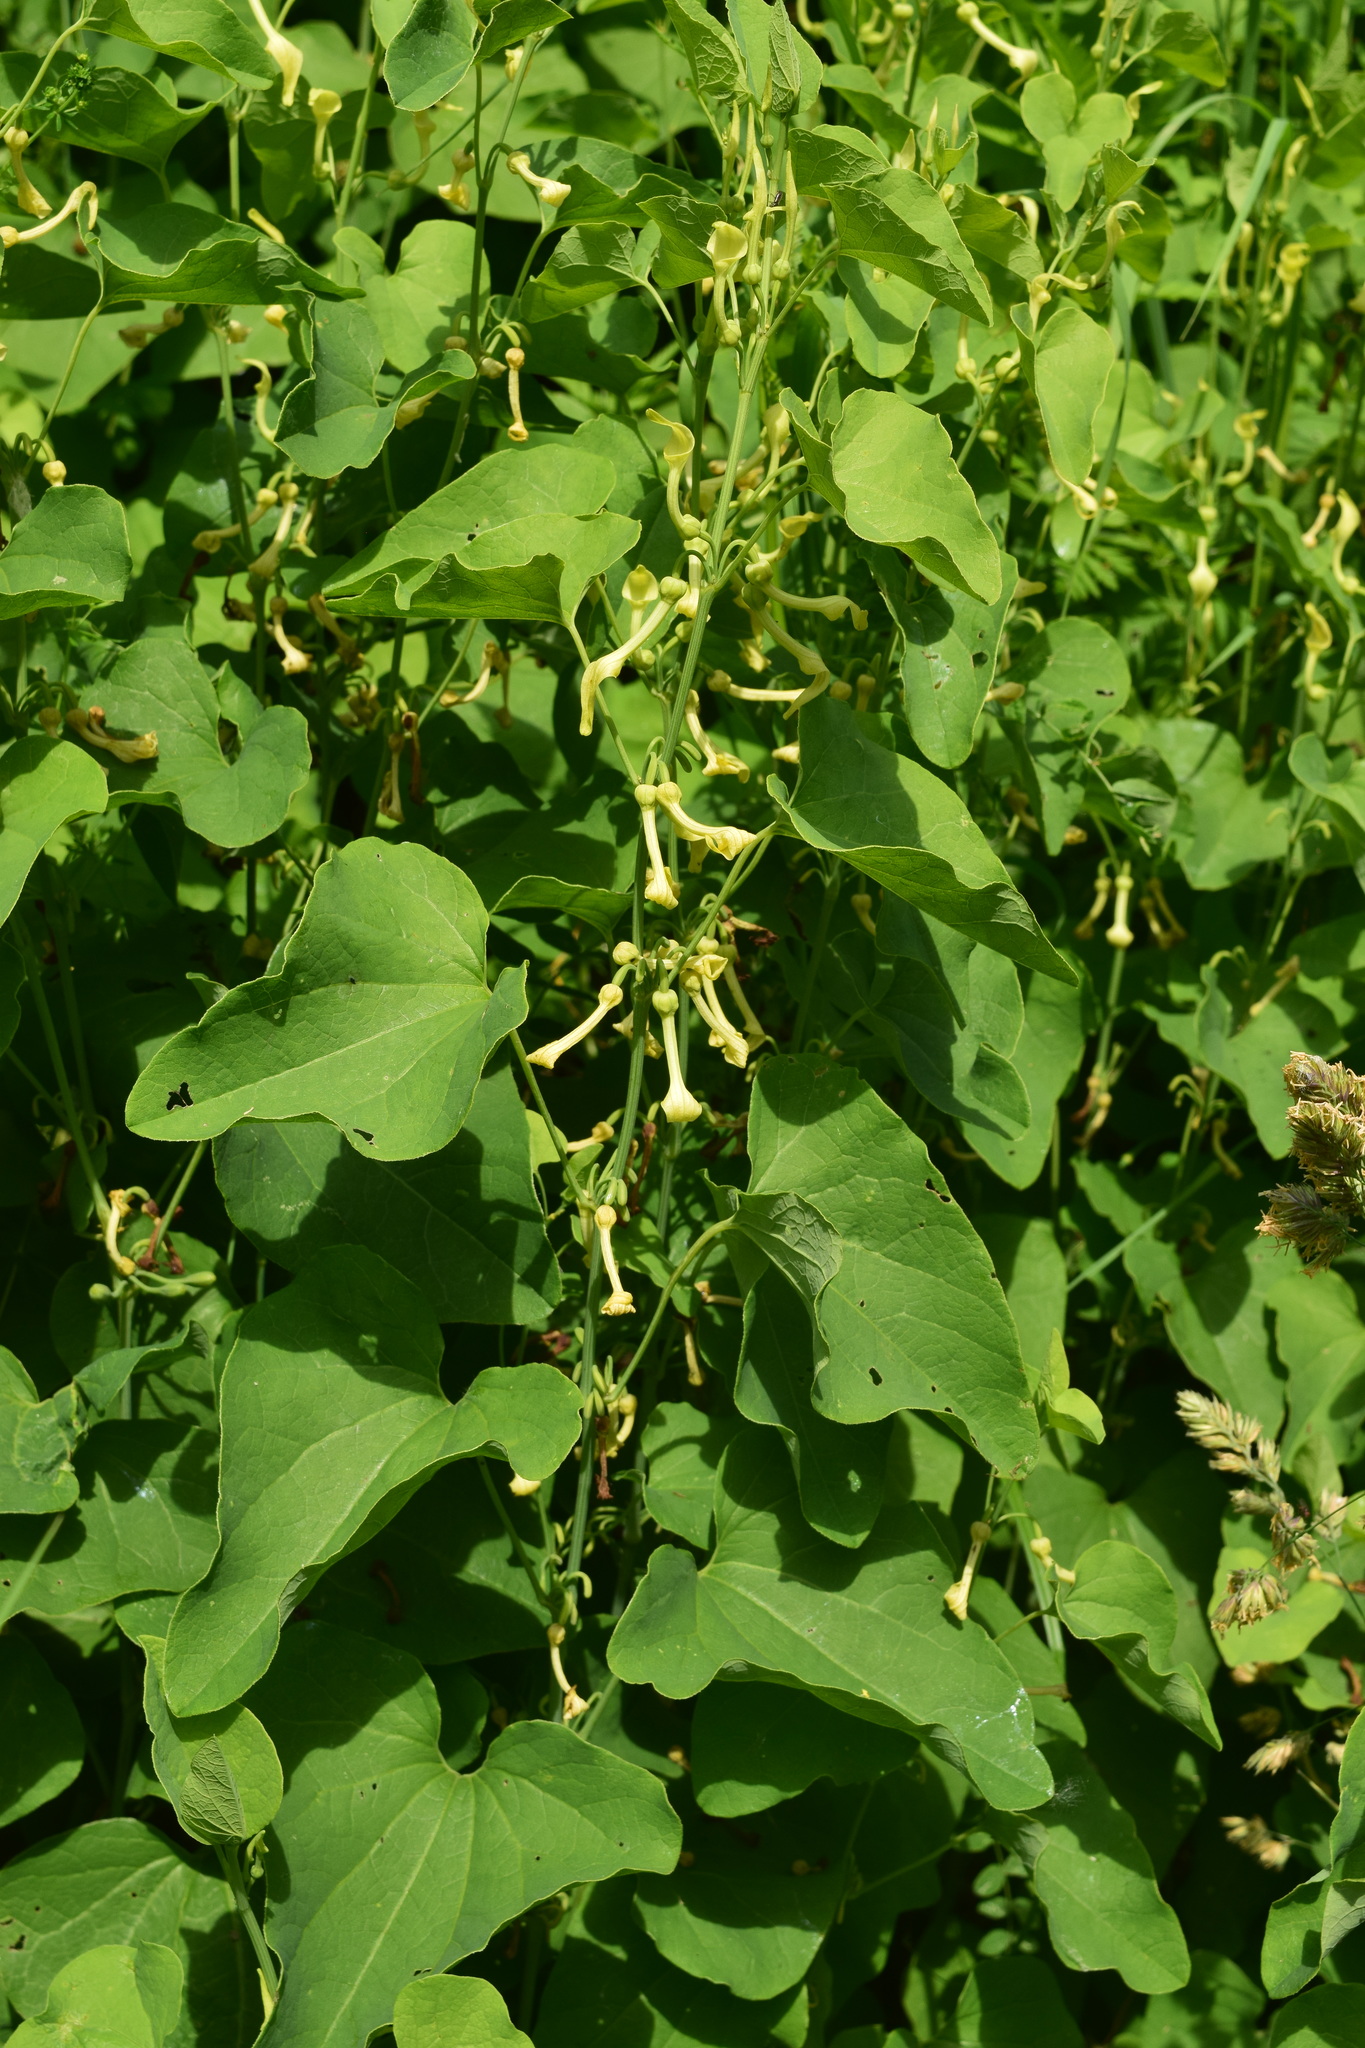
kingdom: Plantae
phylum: Tracheophyta
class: Magnoliopsida
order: Piperales
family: Aristolochiaceae
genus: Aristolochia
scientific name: Aristolochia clematitis
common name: Birthwort
